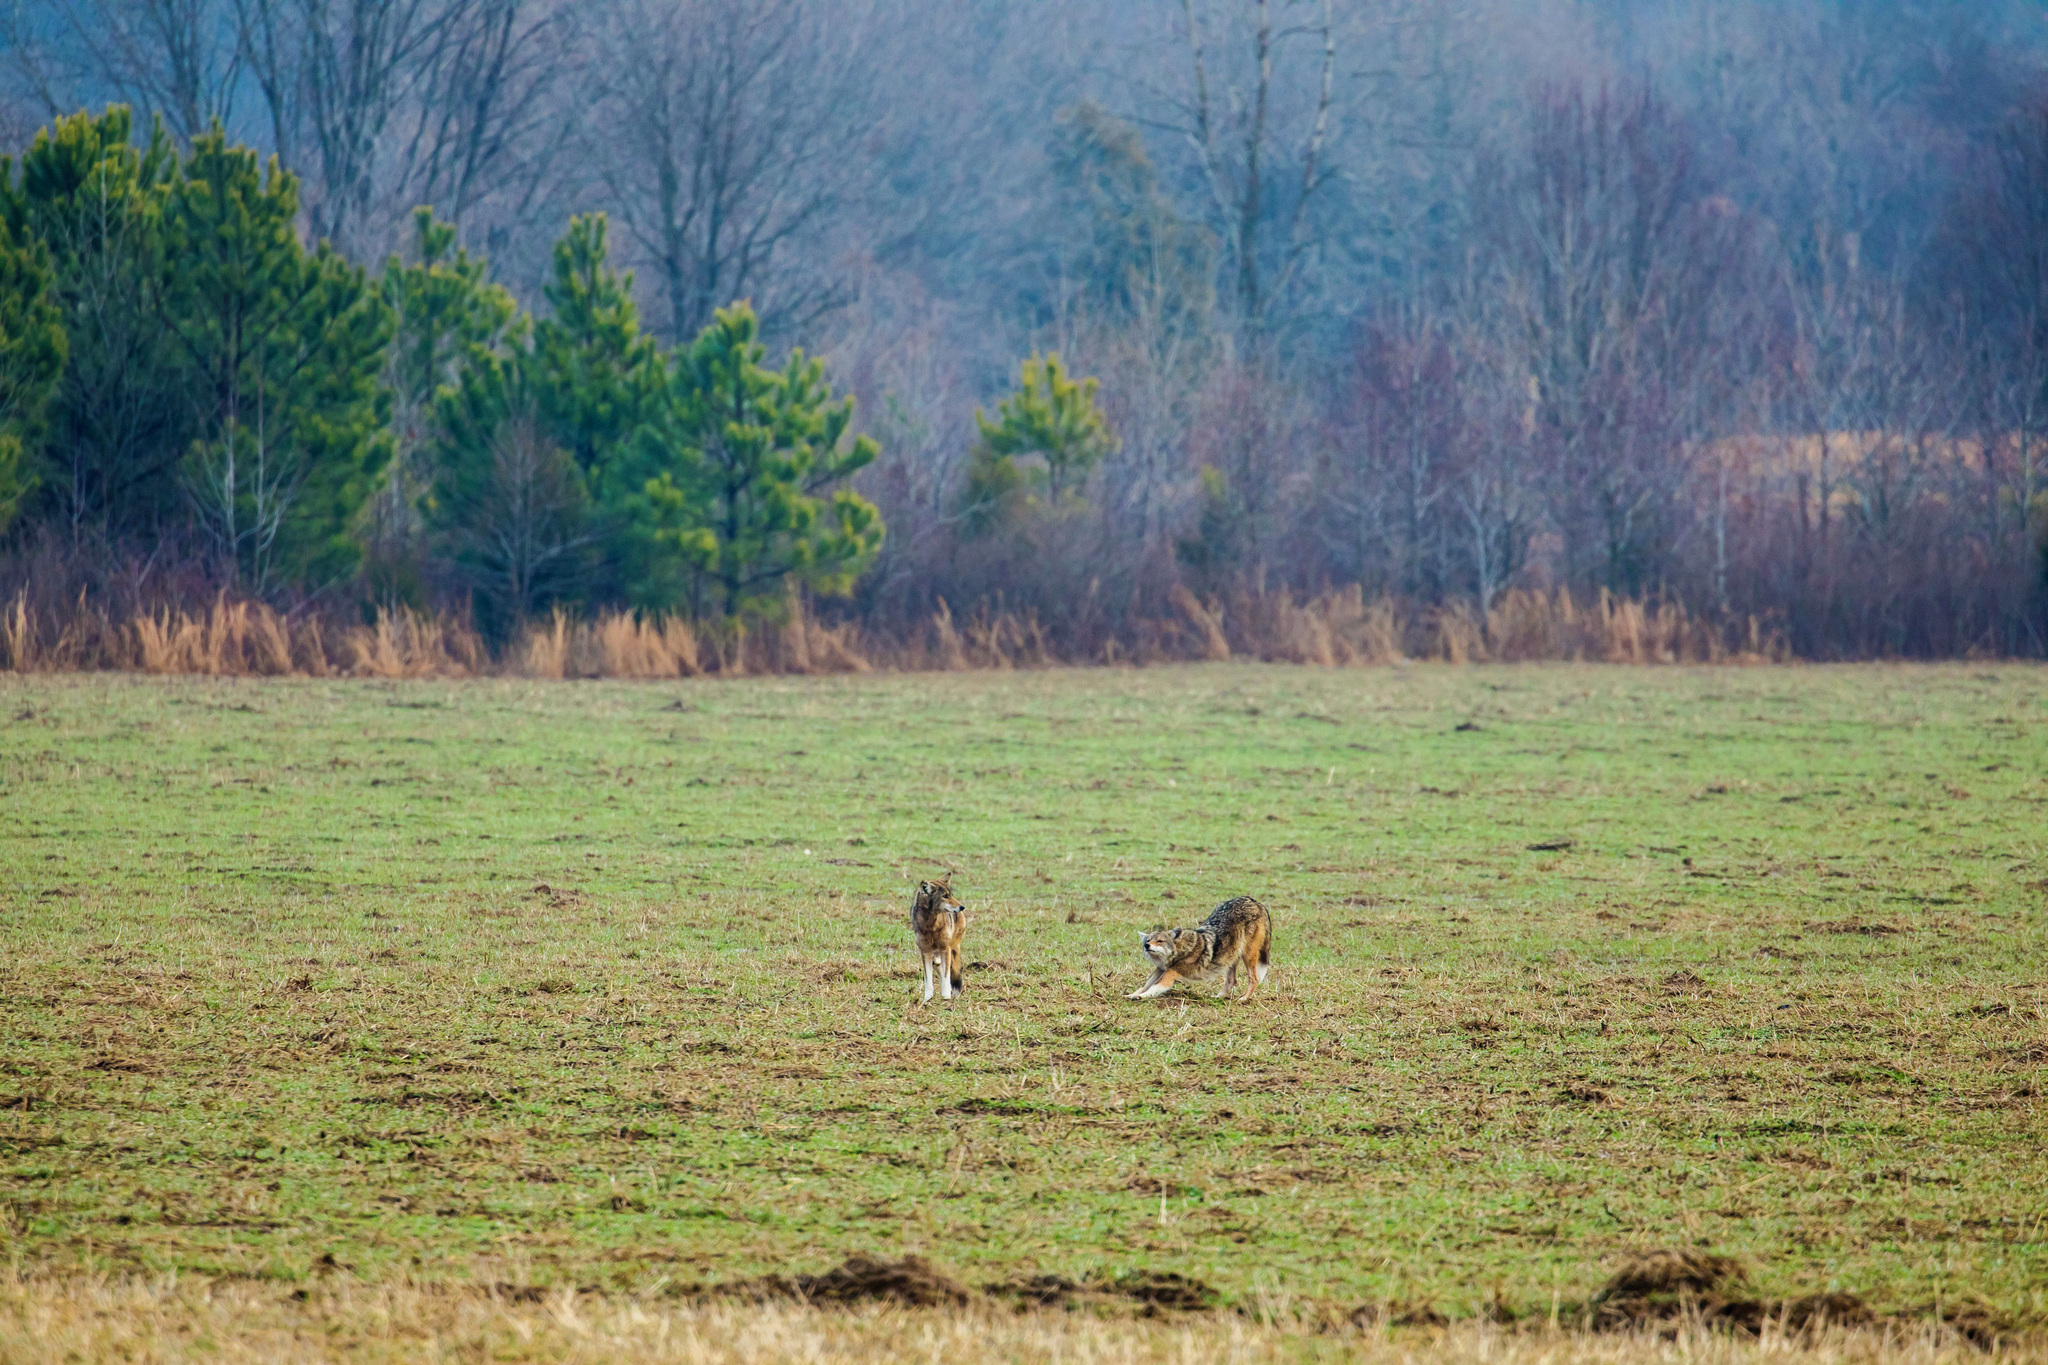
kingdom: Animalia
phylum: Chordata
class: Mammalia
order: Carnivora
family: Canidae
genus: Canis
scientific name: Canis latrans
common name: Coyote
